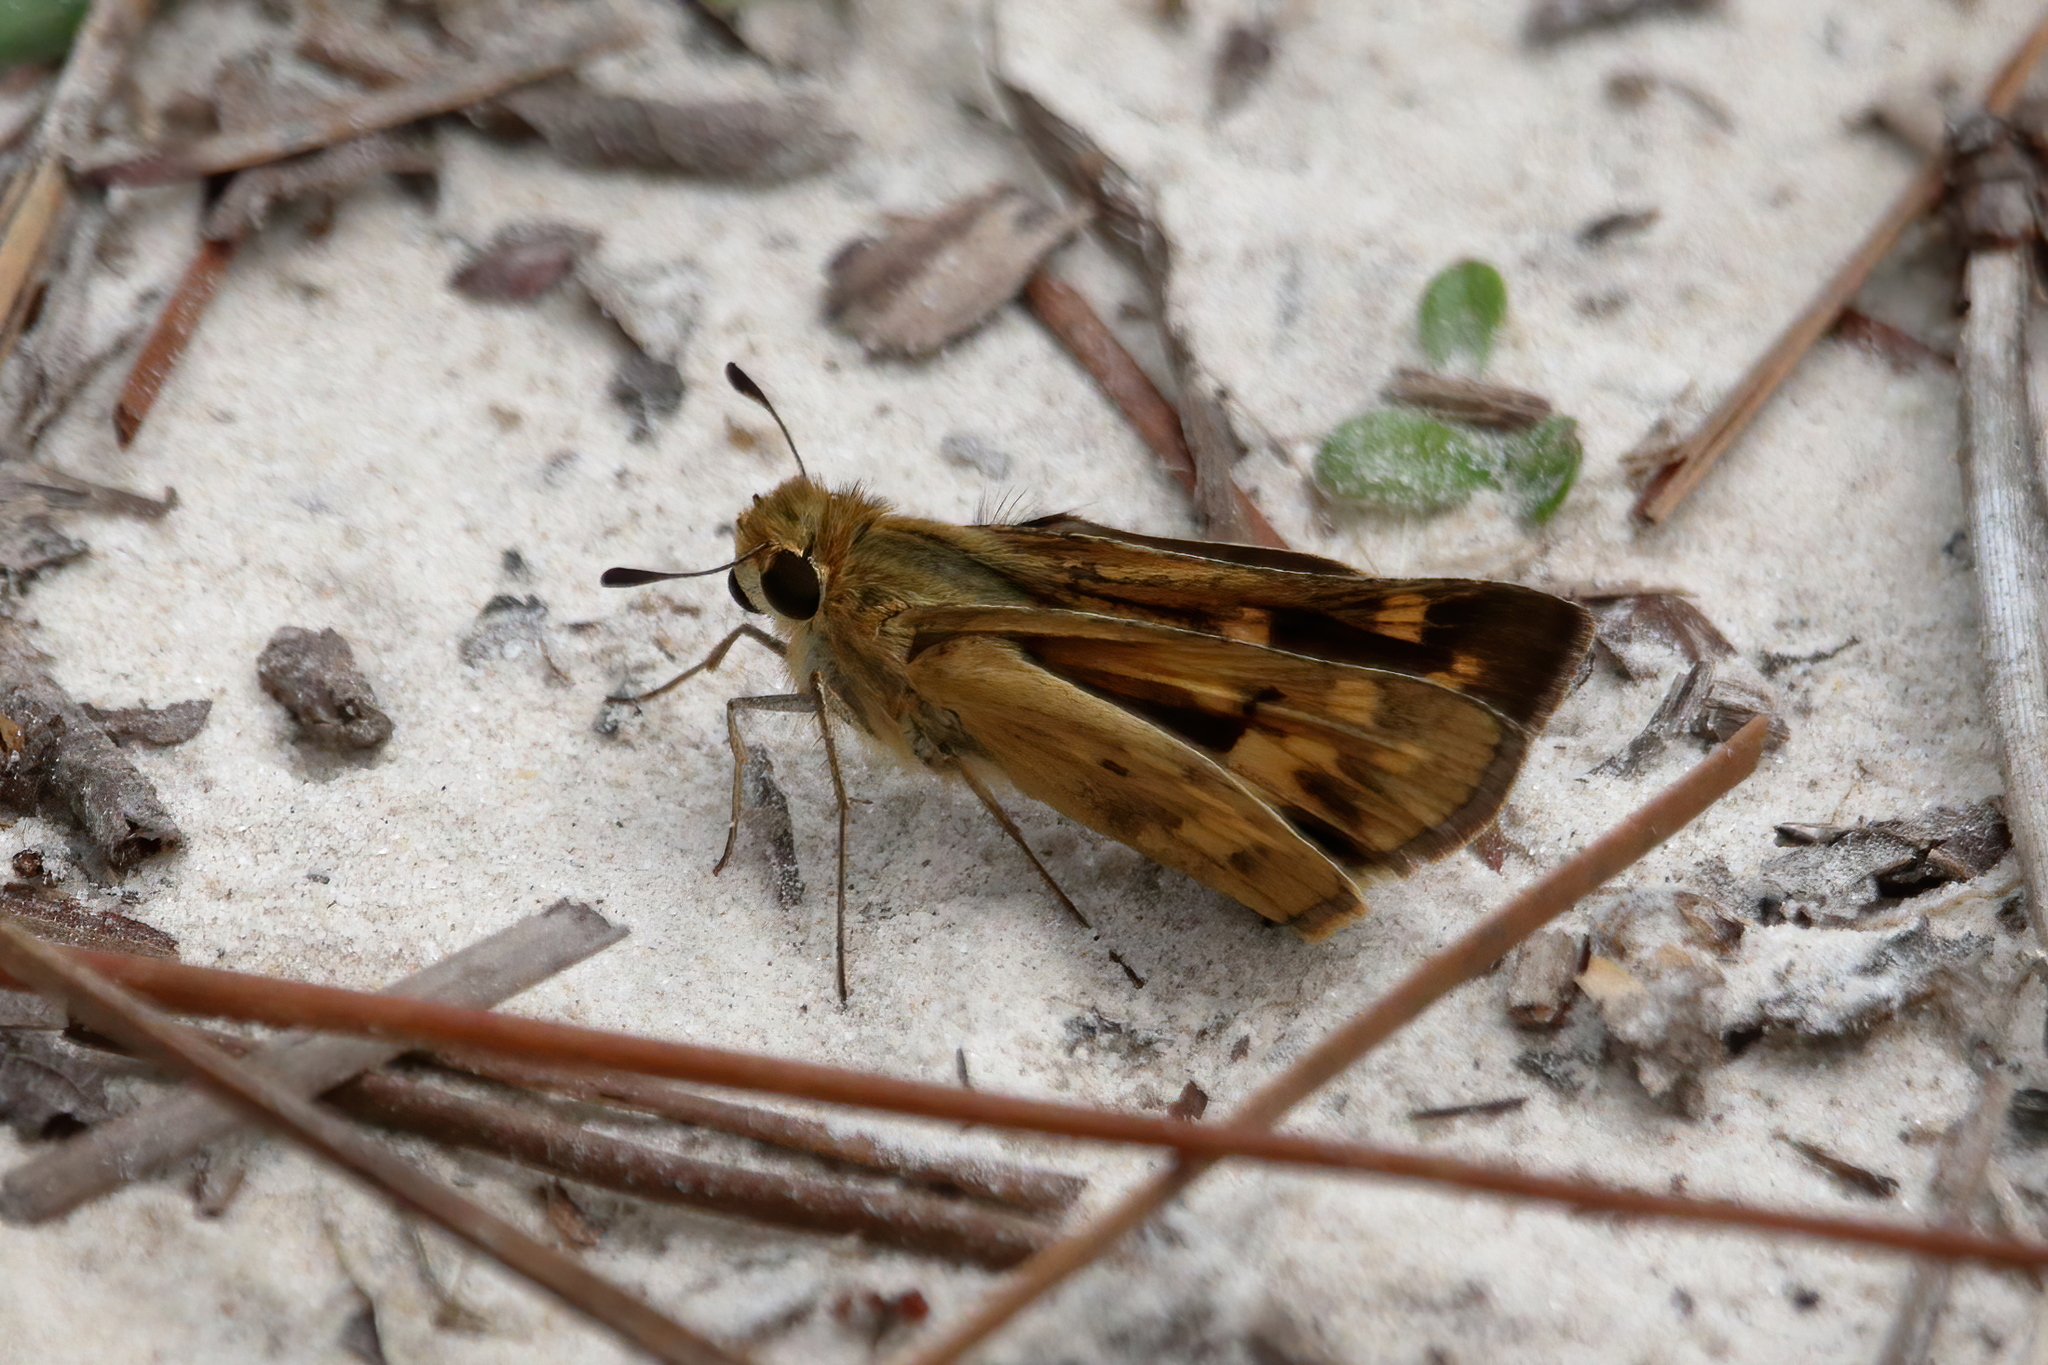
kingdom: Animalia
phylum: Arthropoda
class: Insecta
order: Lepidoptera
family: Hesperiidae
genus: Hylephila
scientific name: Hylephila phyleus
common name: Fiery skipper
